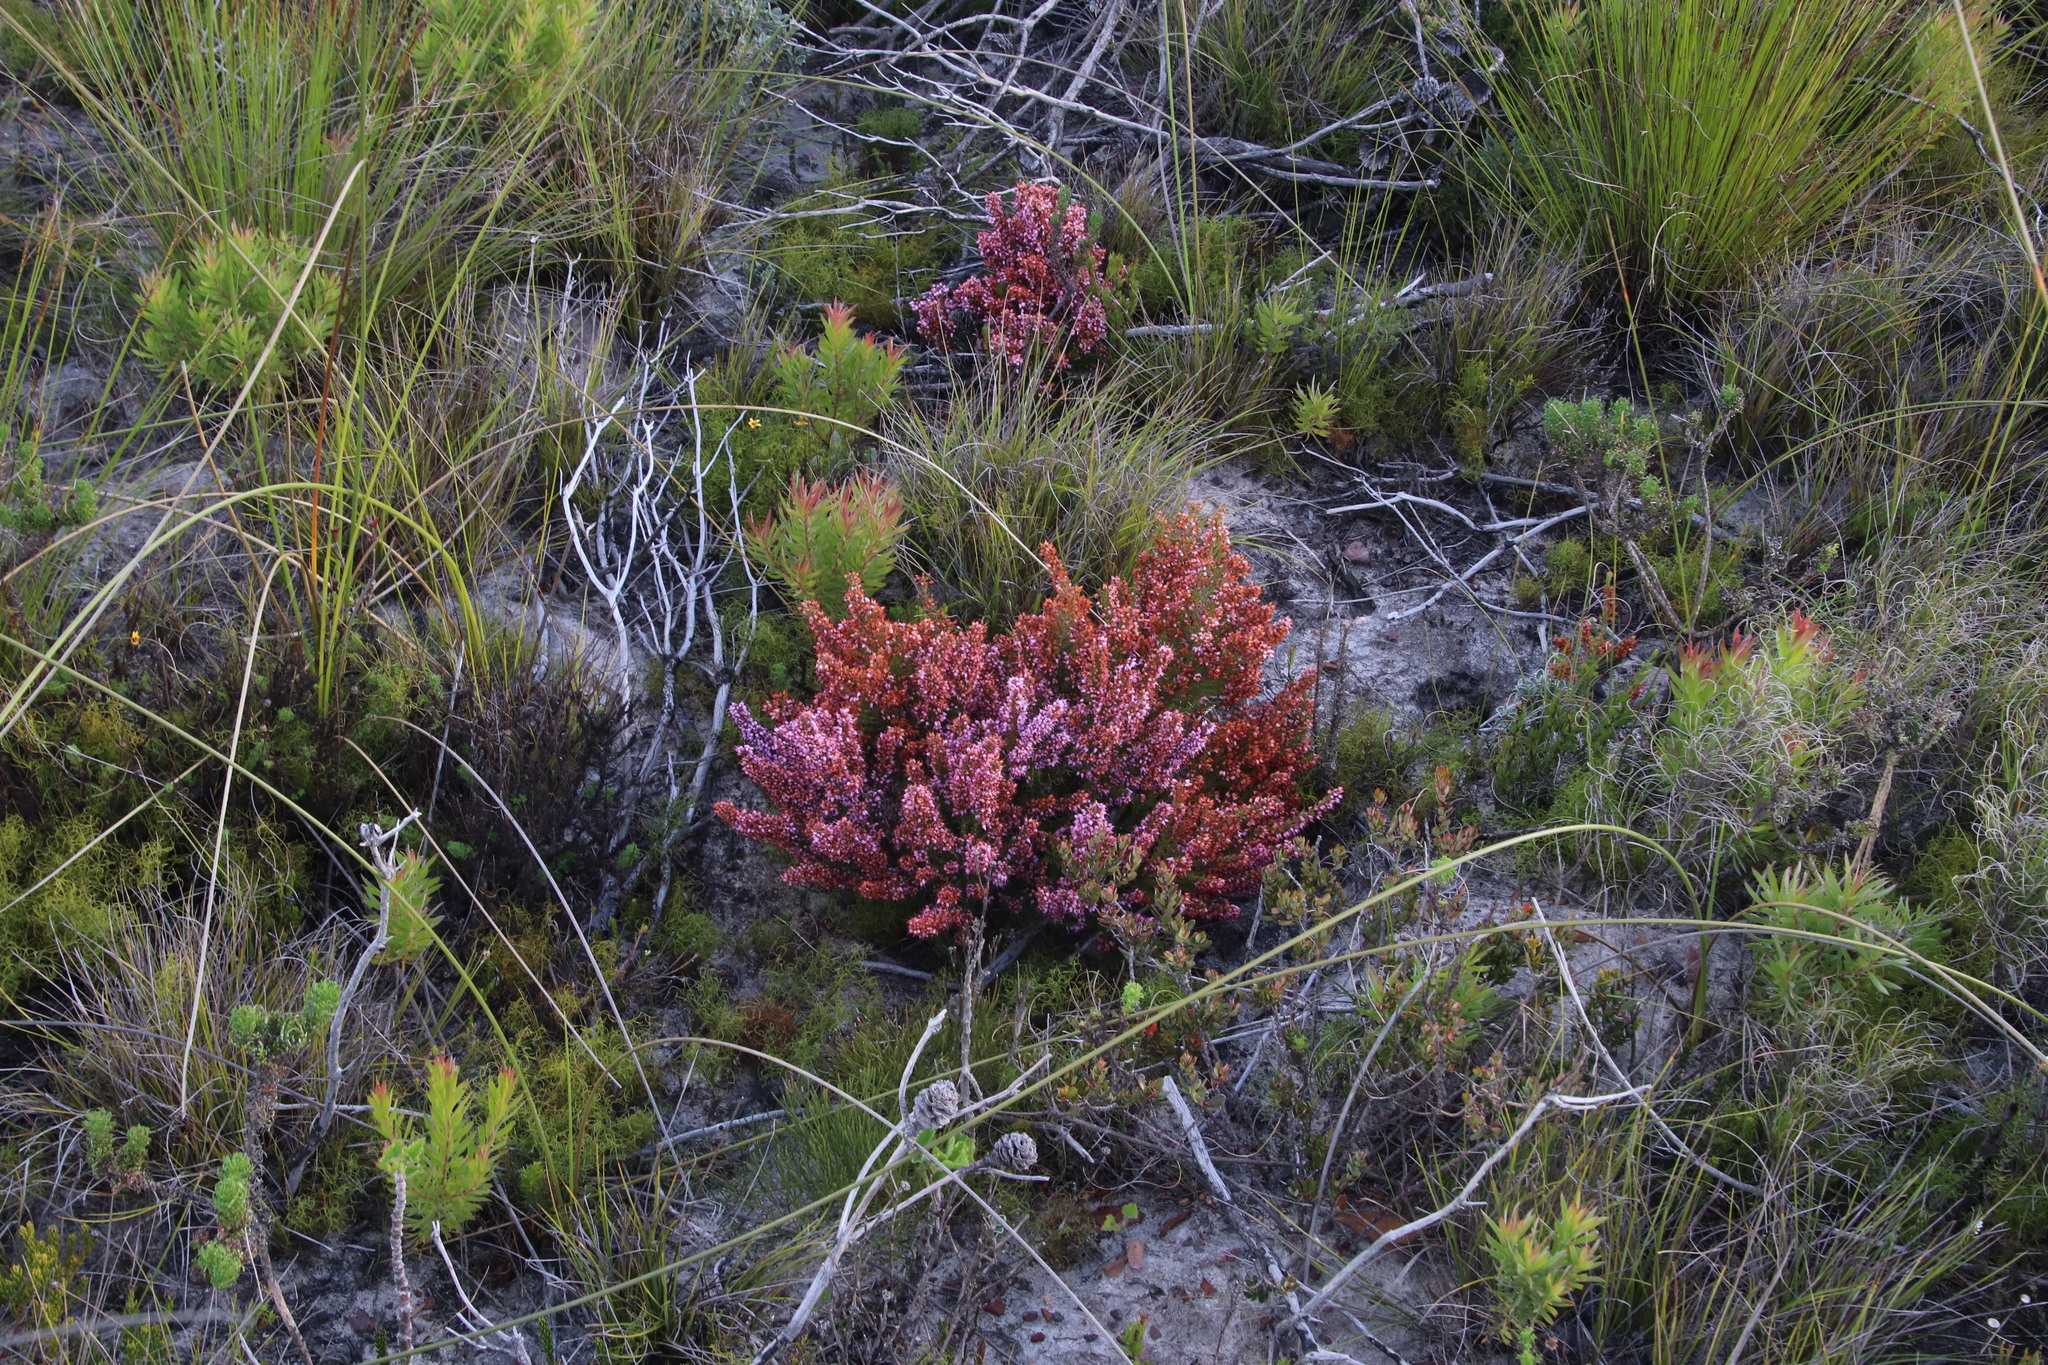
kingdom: Plantae
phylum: Tracheophyta
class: Magnoliopsida
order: Ericales
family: Ericaceae
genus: Erica
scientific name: Erica nudiflora
